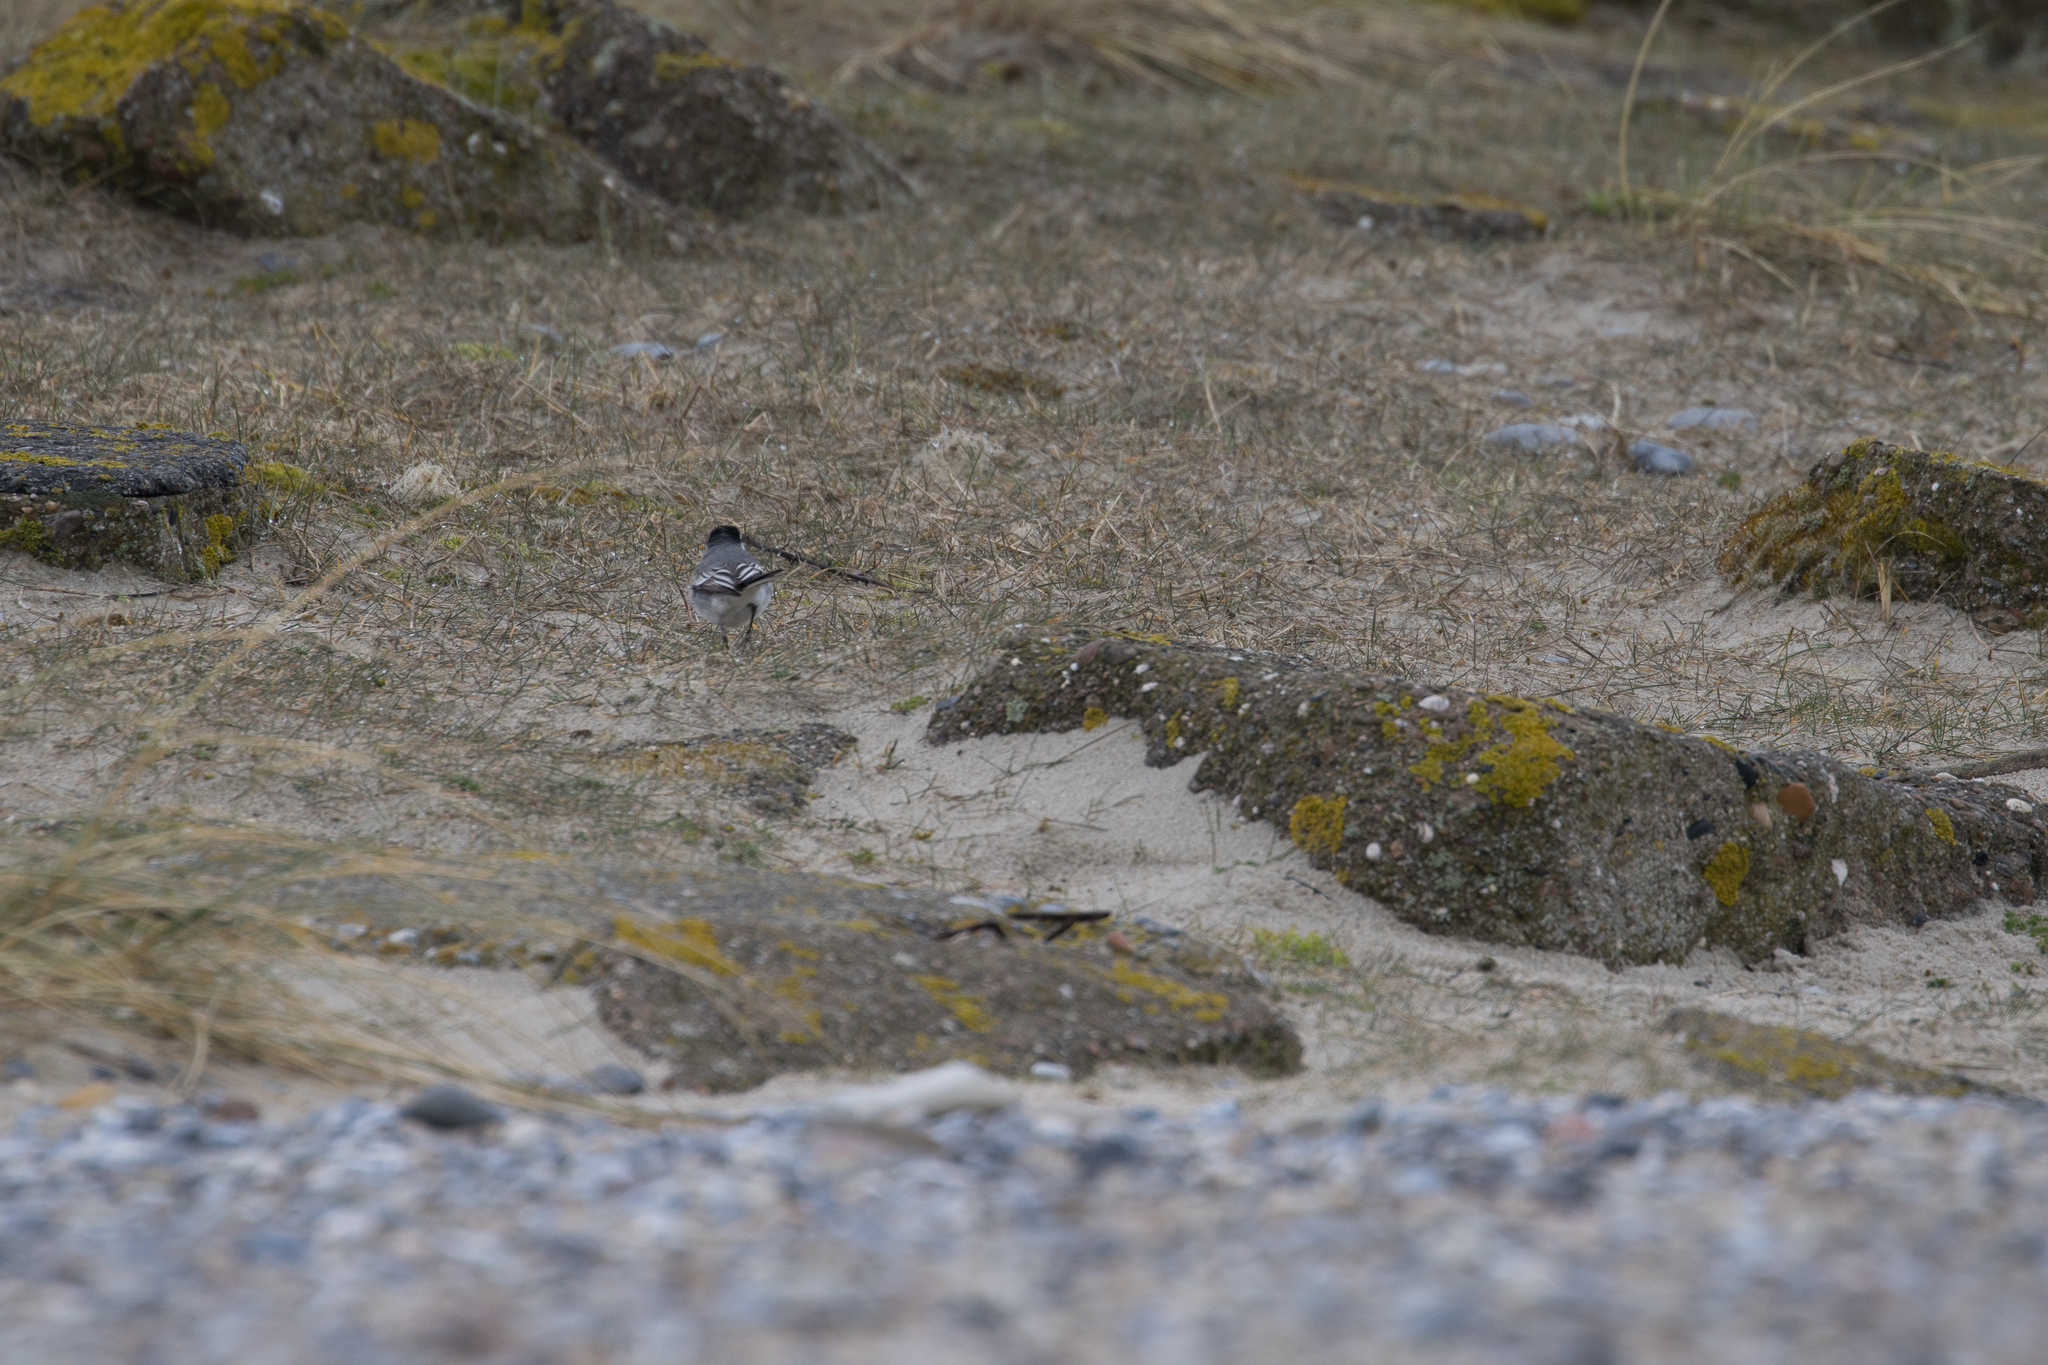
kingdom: Animalia
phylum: Chordata
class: Aves
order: Passeriformes
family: Motacillidae
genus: Motacilla
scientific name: Motacilla alba
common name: White wagtail
